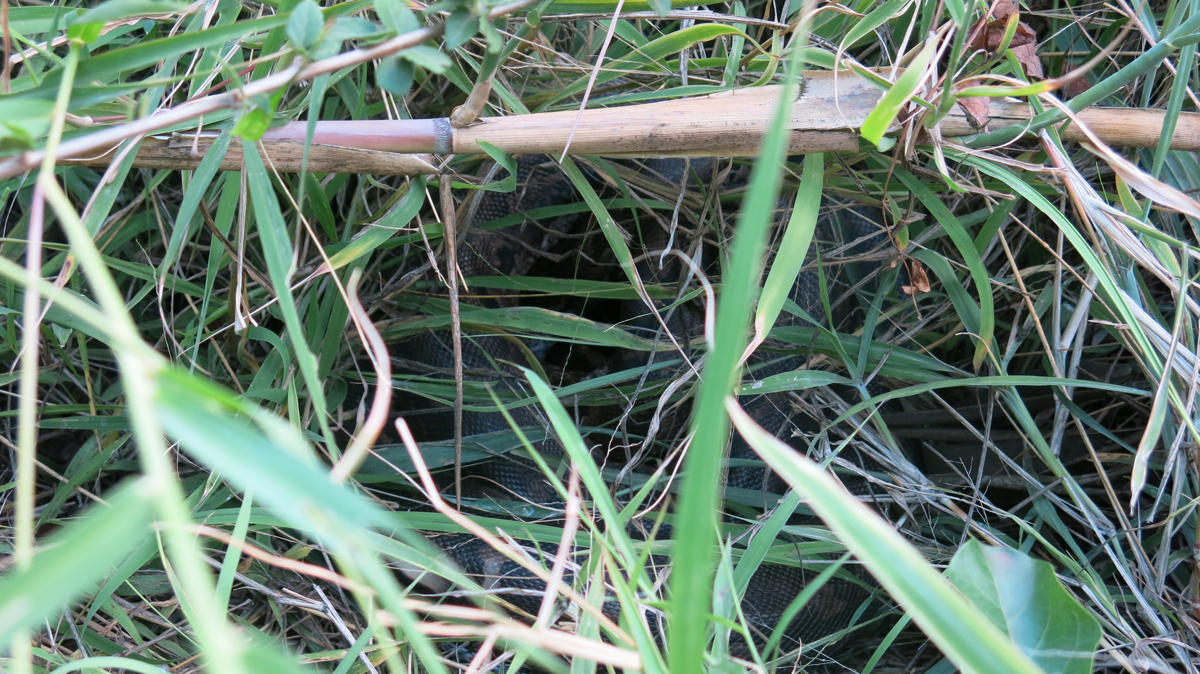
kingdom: Animalia
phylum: Chordata
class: Squamata
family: Pythonidae
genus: Python
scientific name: Python natalensis
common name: Southern african rock python
